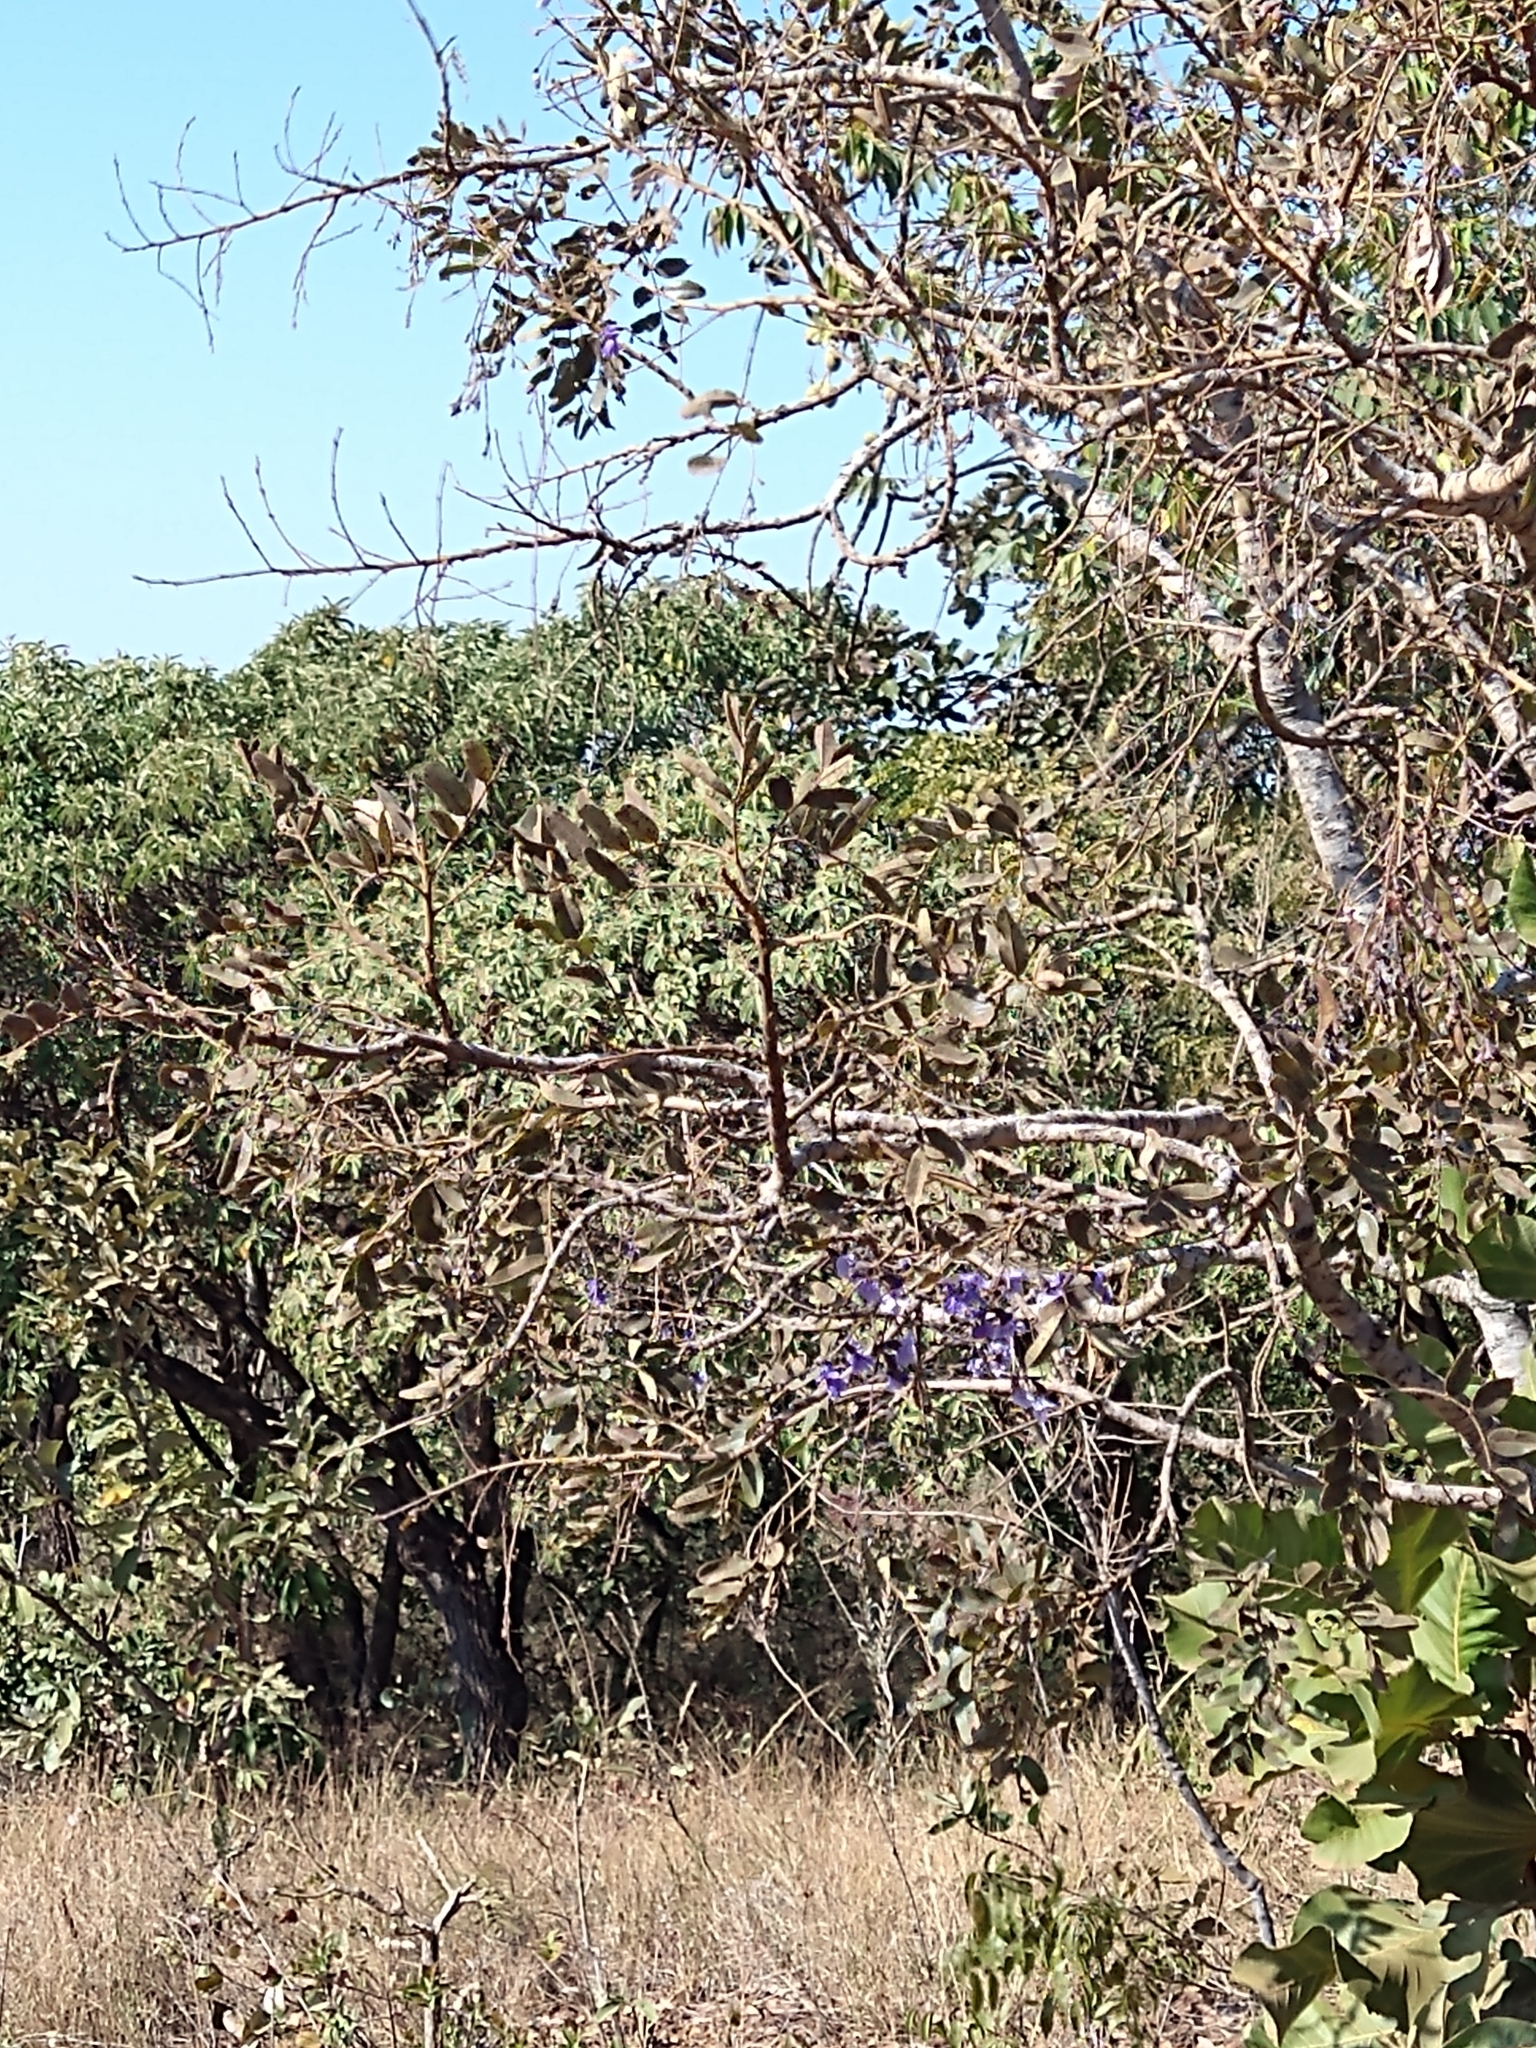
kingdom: Plantae
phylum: Tracheophyta
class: Magnoliopsida
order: Fabales
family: Fabaceae
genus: Bowdichia
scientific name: Bowdichia virgilioides
